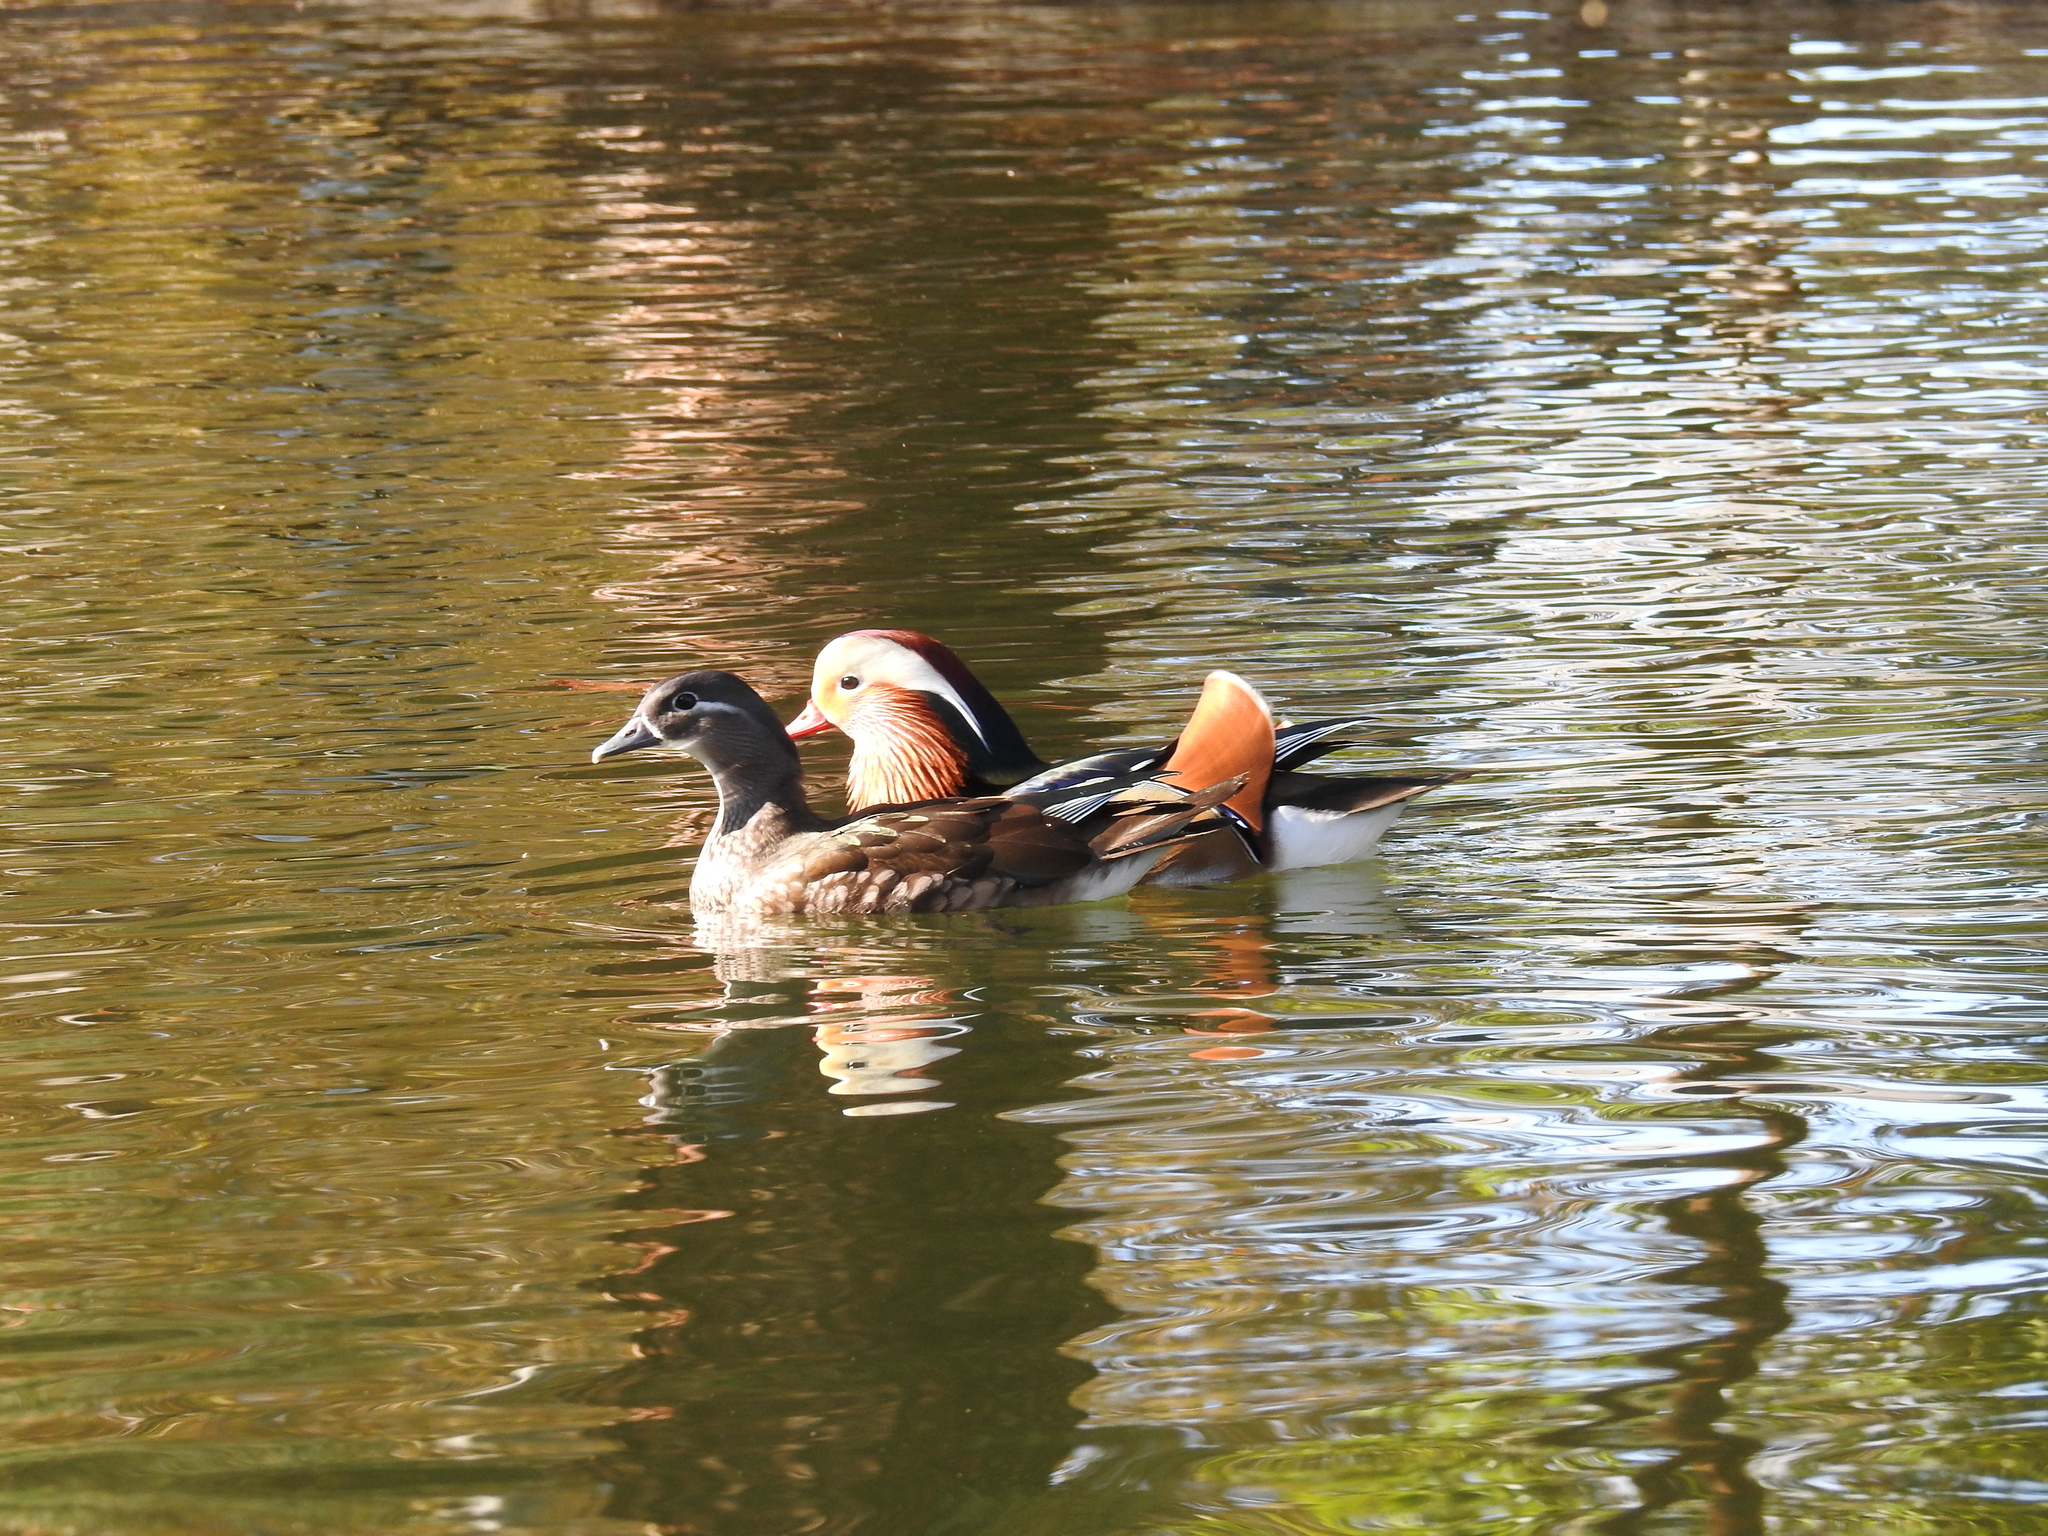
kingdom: Animalia
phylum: Chordata
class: Aves
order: Anseriformes
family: Anatidae
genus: Aix
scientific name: Aix galericulata
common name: Mandarin duck
